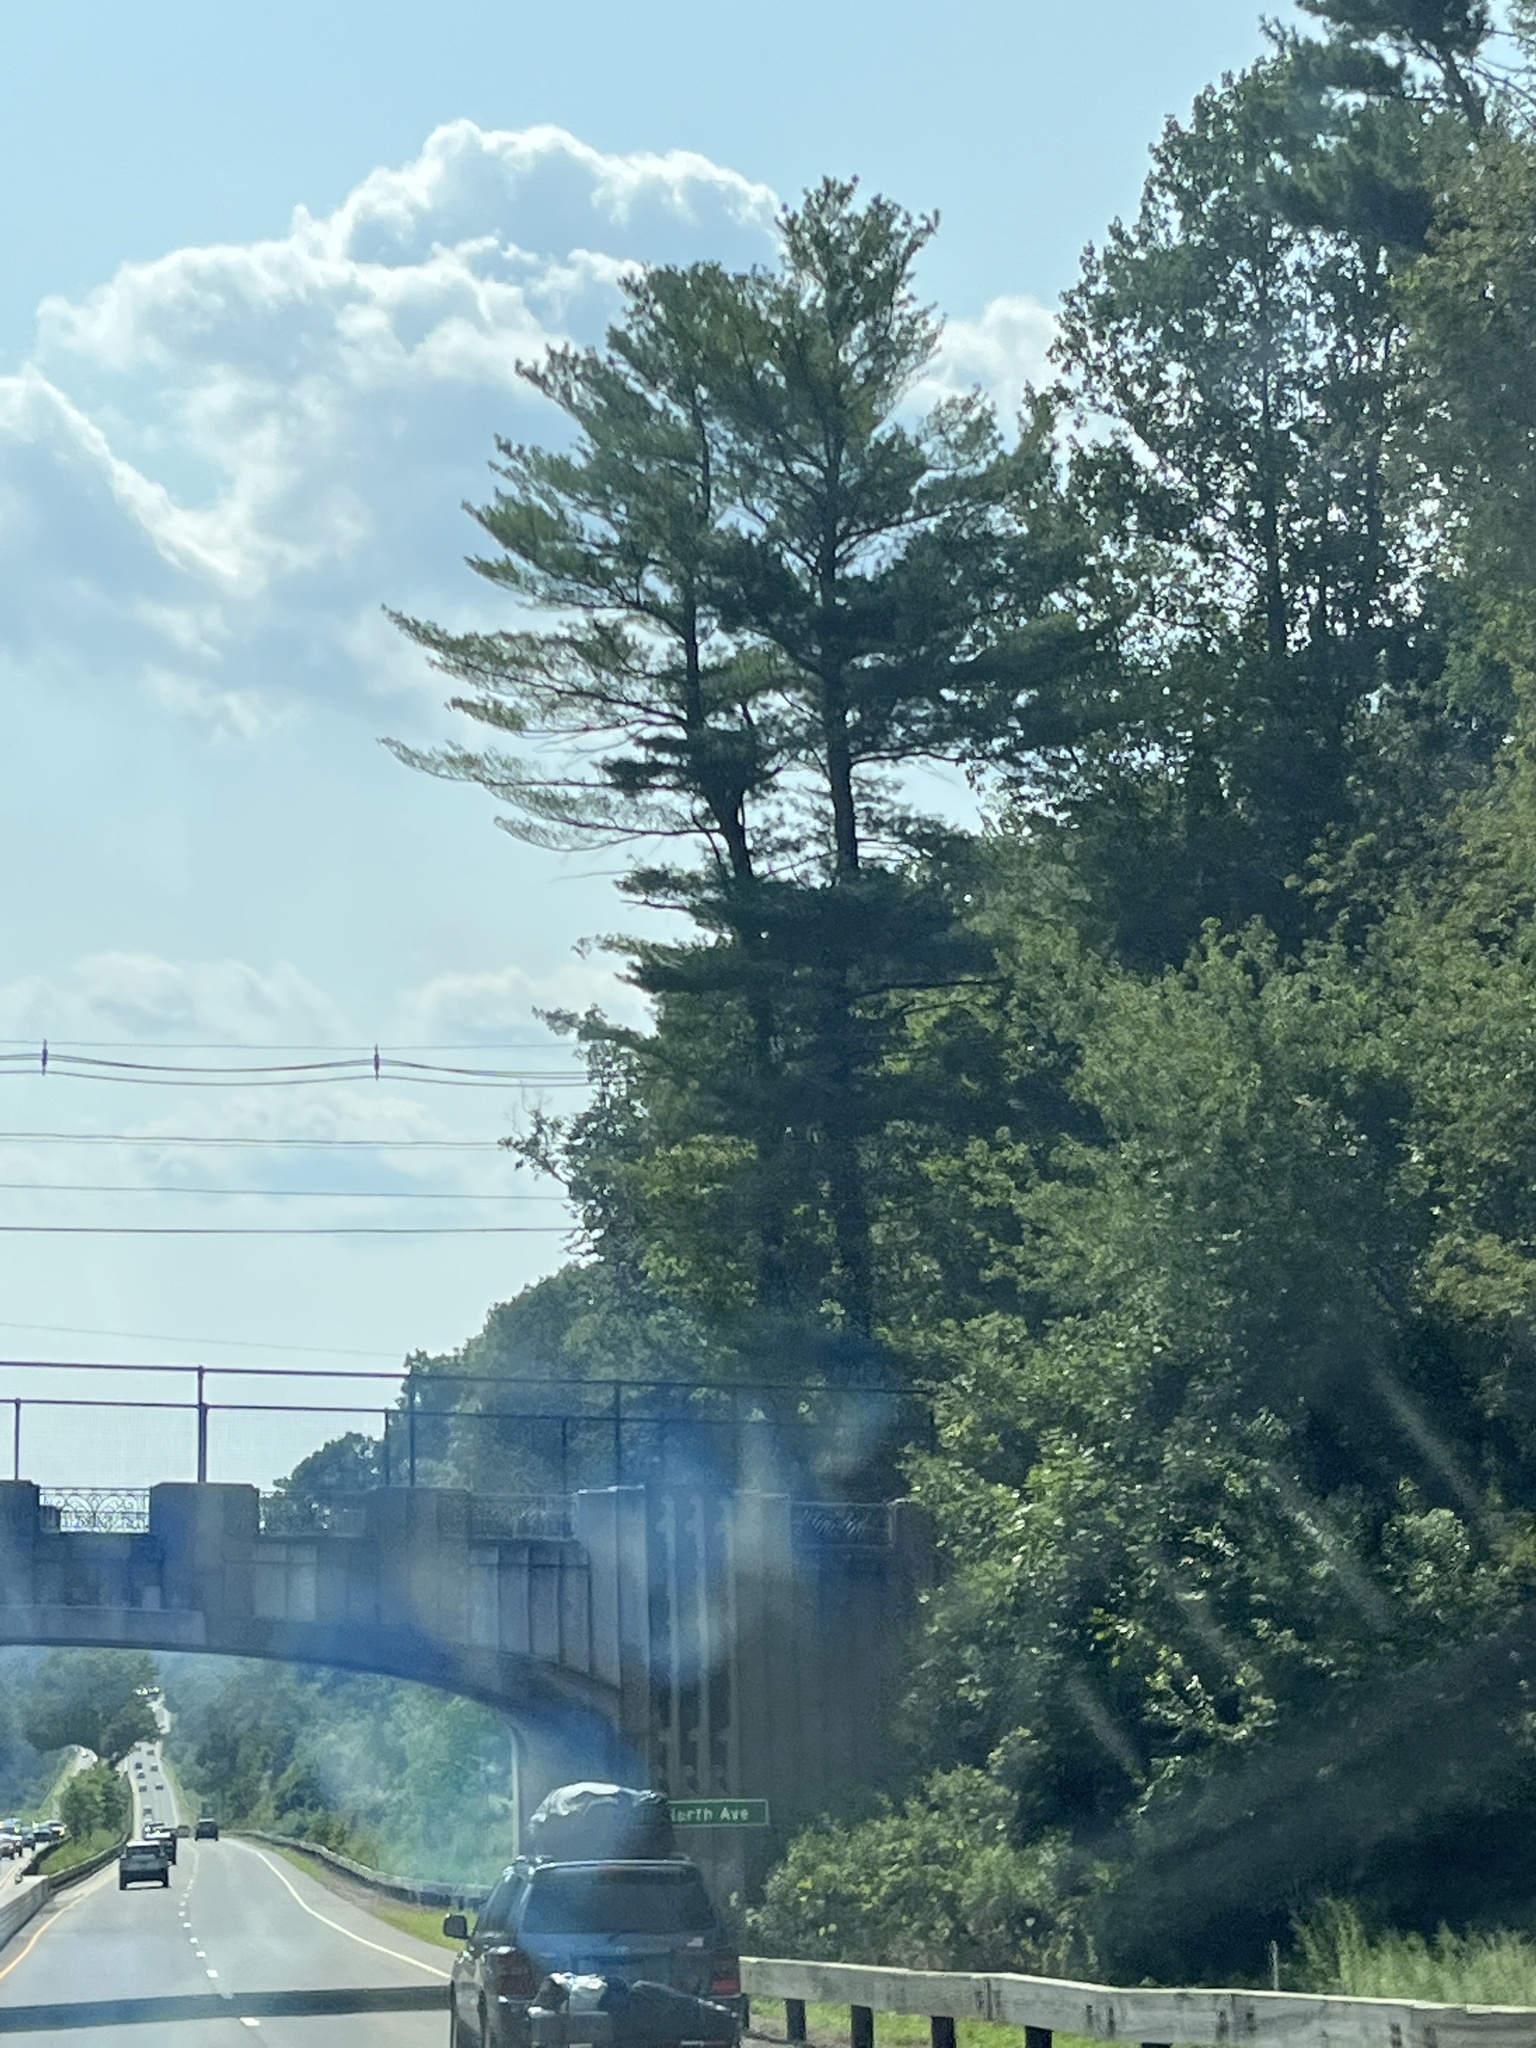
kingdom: Plantae
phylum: Tracheophyta
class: Pinopsida
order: Pinales
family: Pinaceae
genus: Pinus
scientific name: Pinus strobus
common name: Weymouth pine
